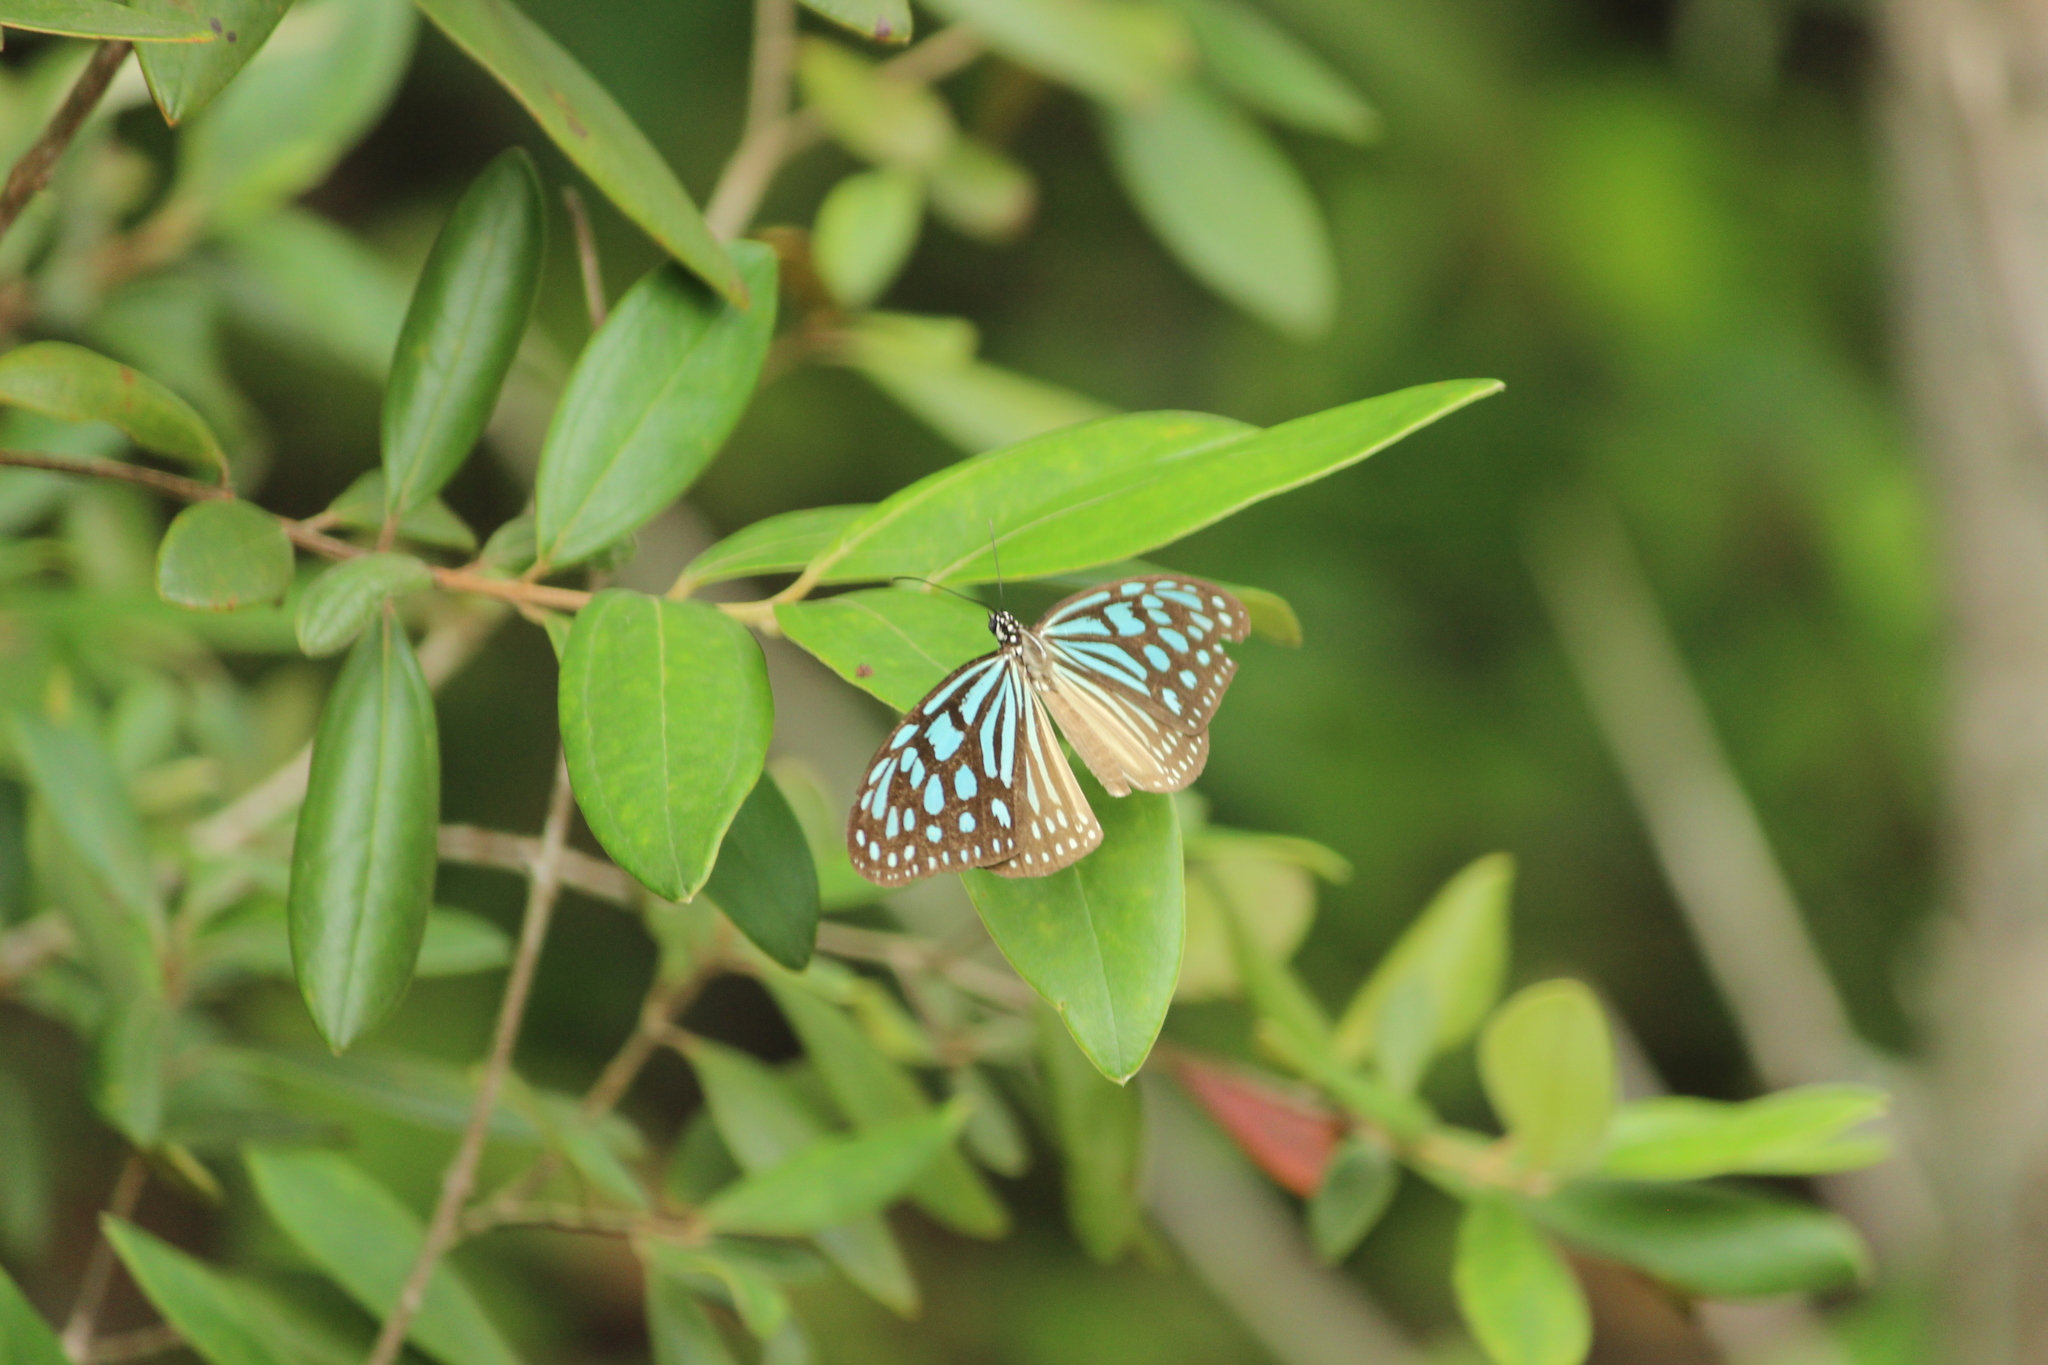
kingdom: Animalia
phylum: Arthropoda
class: Insecta
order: Lepidoptera
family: Nymphalidae
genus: Ideopsis
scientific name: Ideopsis similis
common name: Ceylon blue glassy tiger
